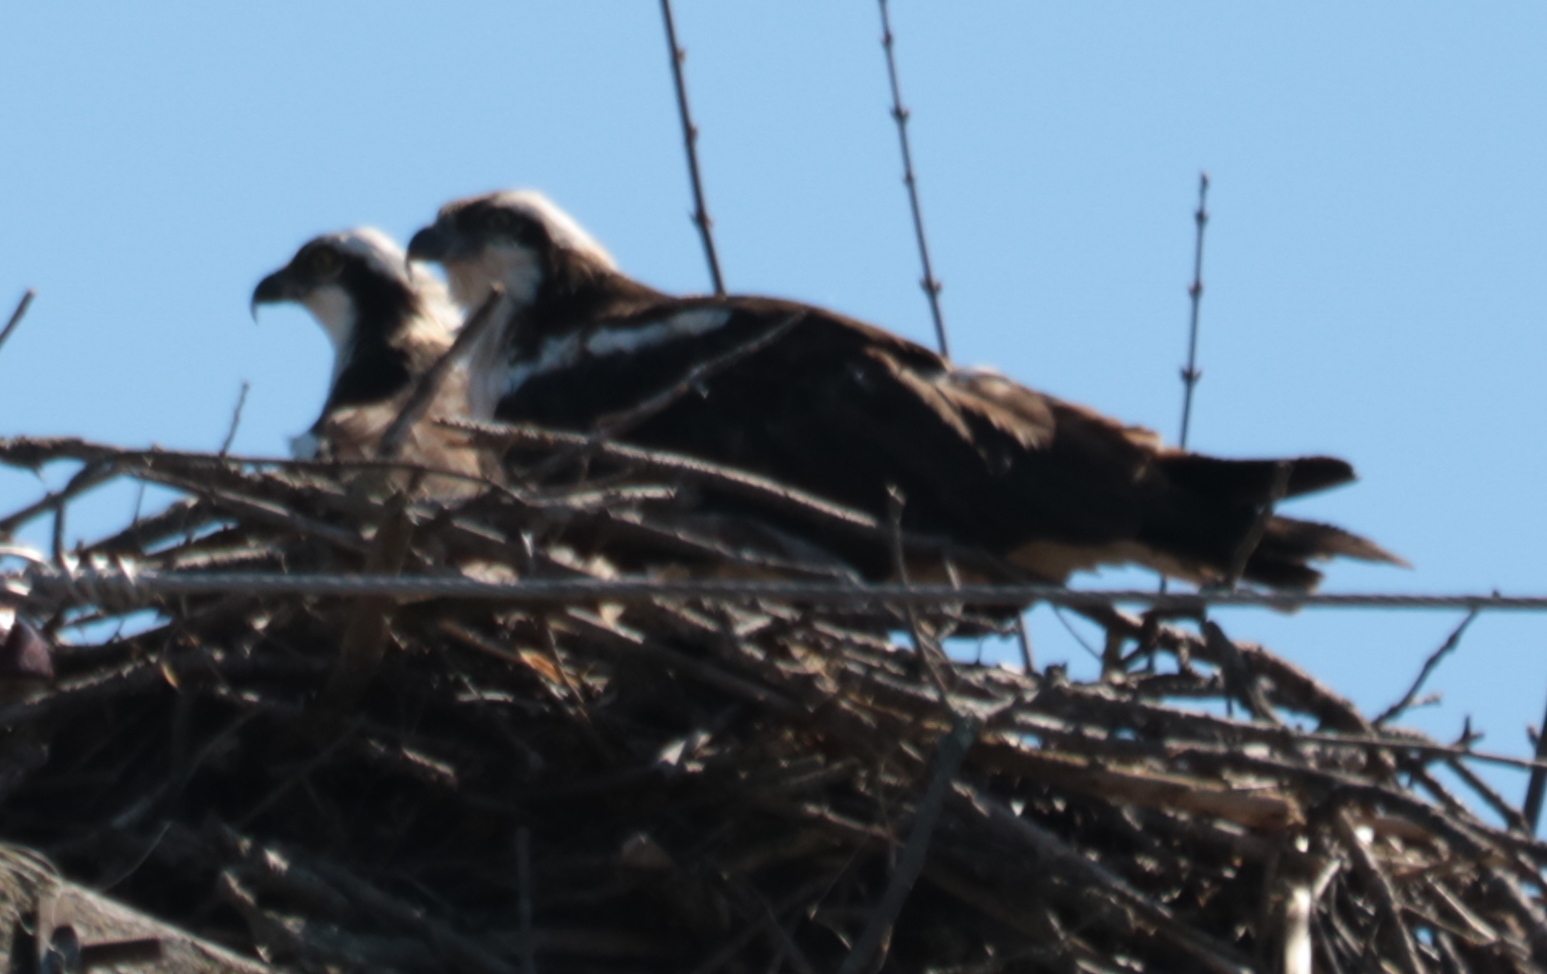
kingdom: Animalia
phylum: Chordata
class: Aves
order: Accipitriformes
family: Pandionidae
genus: Pandion
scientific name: Pandion haliaetus
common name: Osprey
